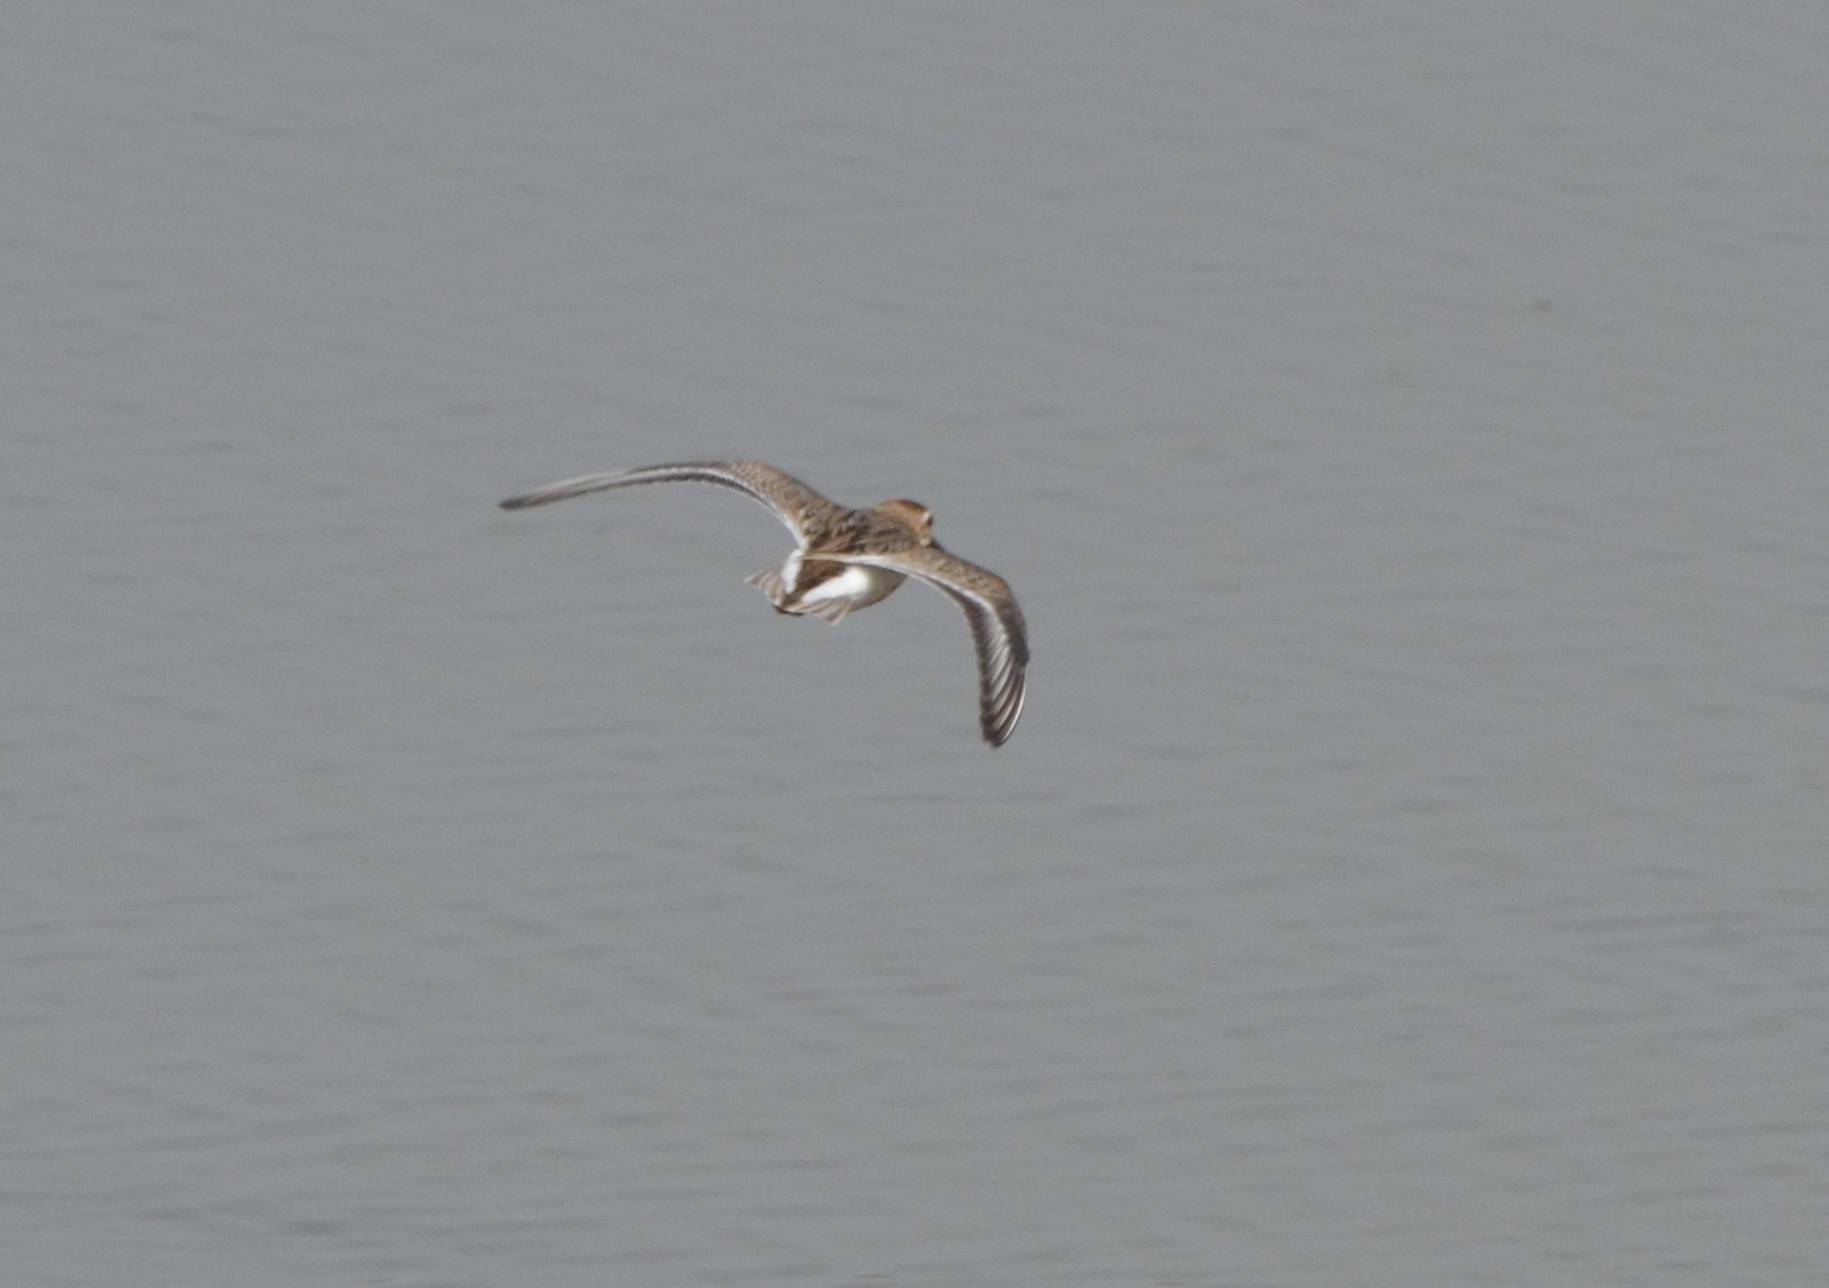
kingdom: Animalia
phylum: Chordata
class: Aves
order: Charadriiformes
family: Scolopacidae
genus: Calidris
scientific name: Calidris alpina
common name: Dunlin
